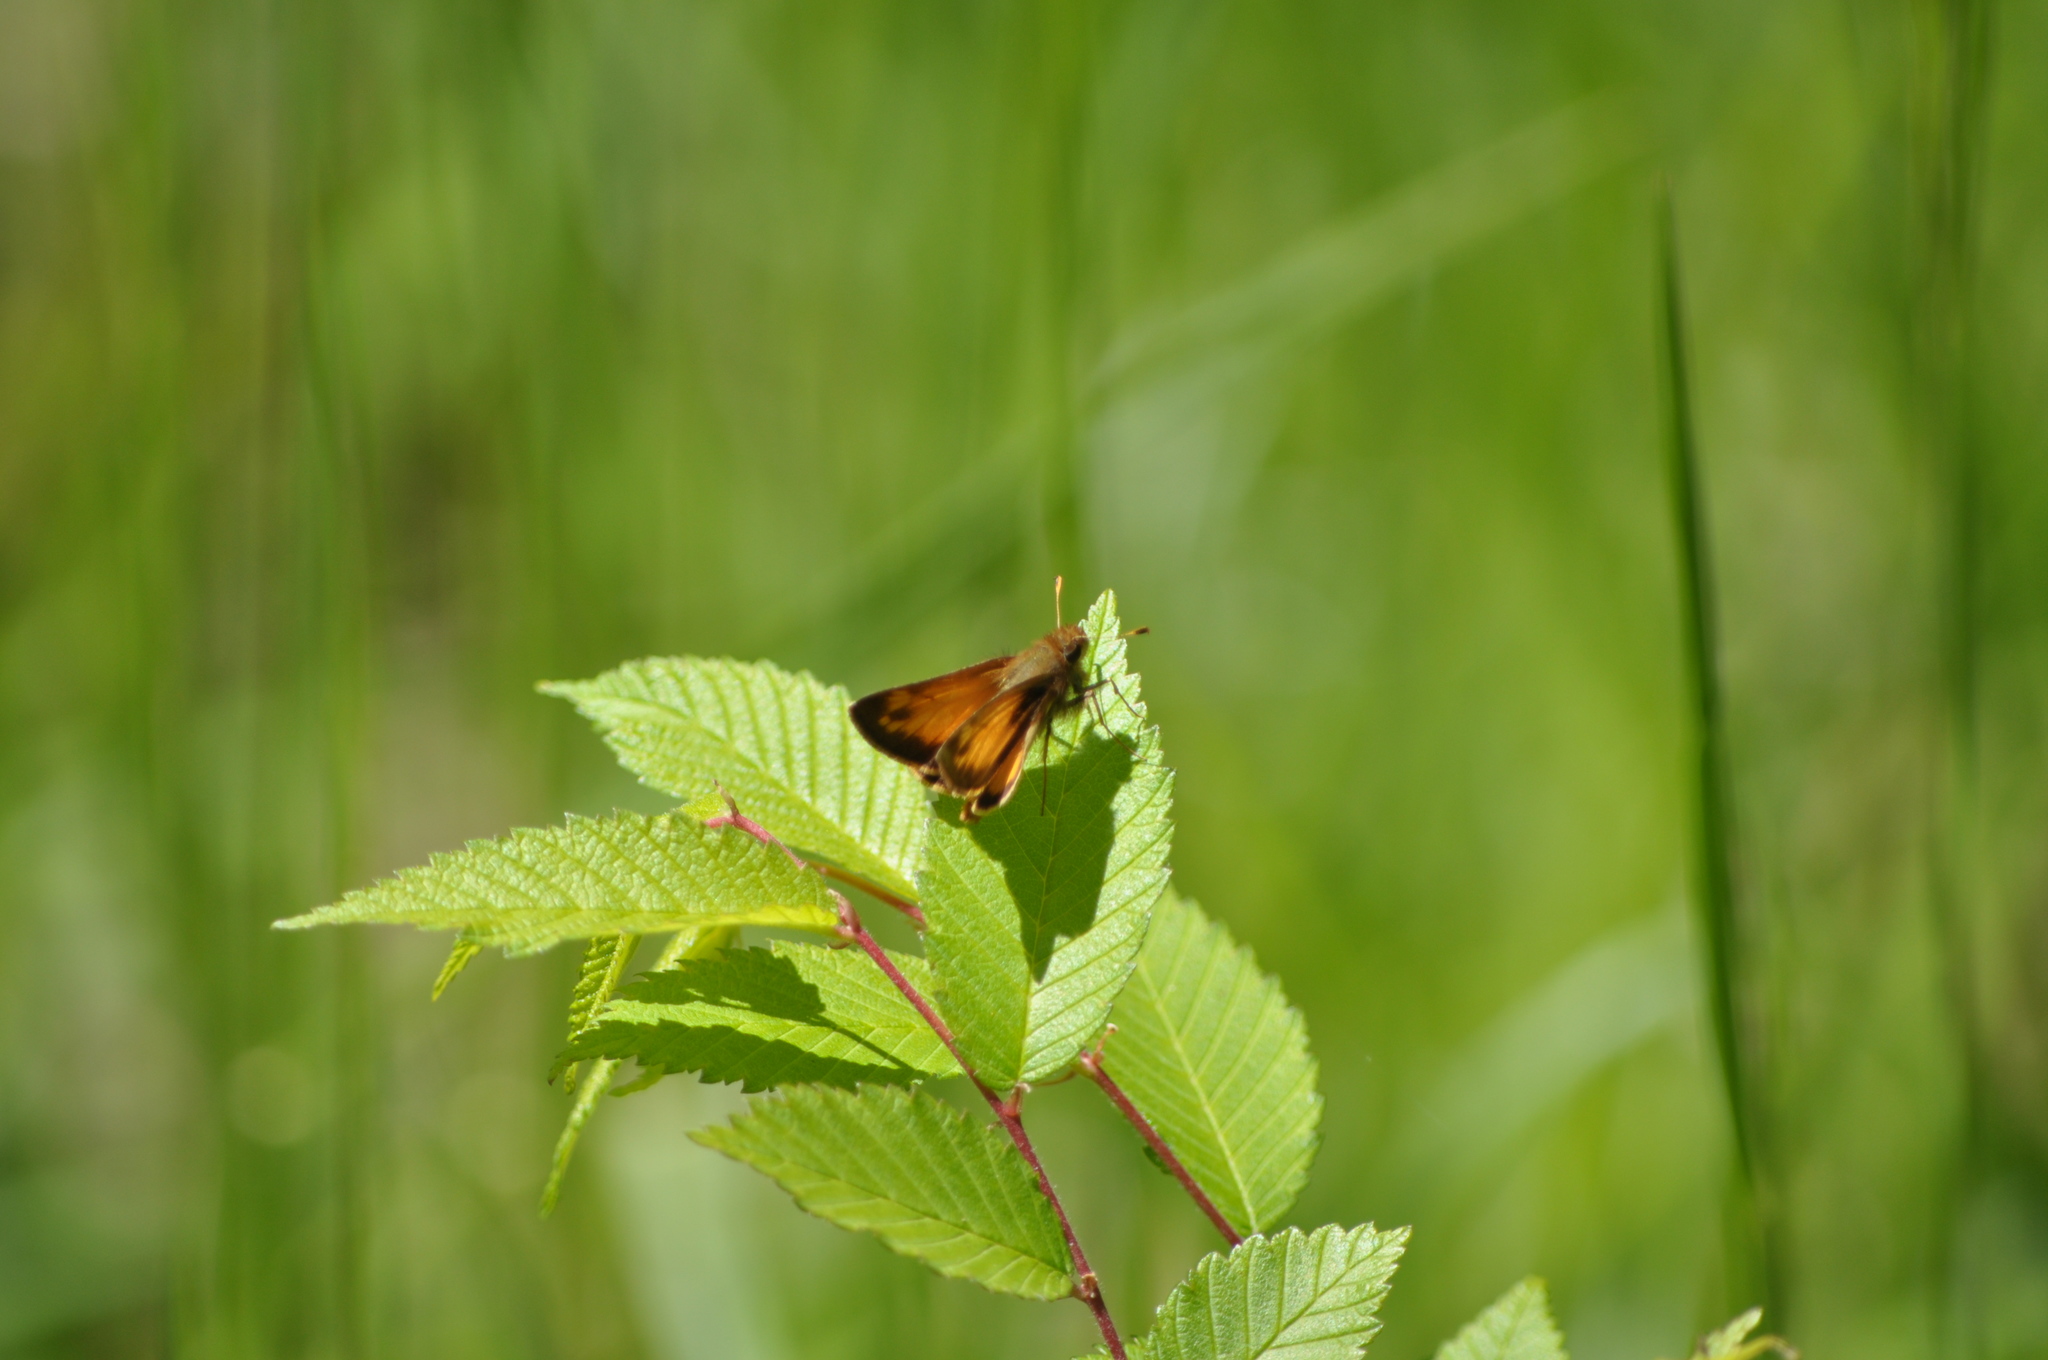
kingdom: Animalia
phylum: Arthropoda
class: Insecta
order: Lepidoptera
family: Hesperiidae
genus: Lon
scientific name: Lon zabulon
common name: Zabulon skipper
